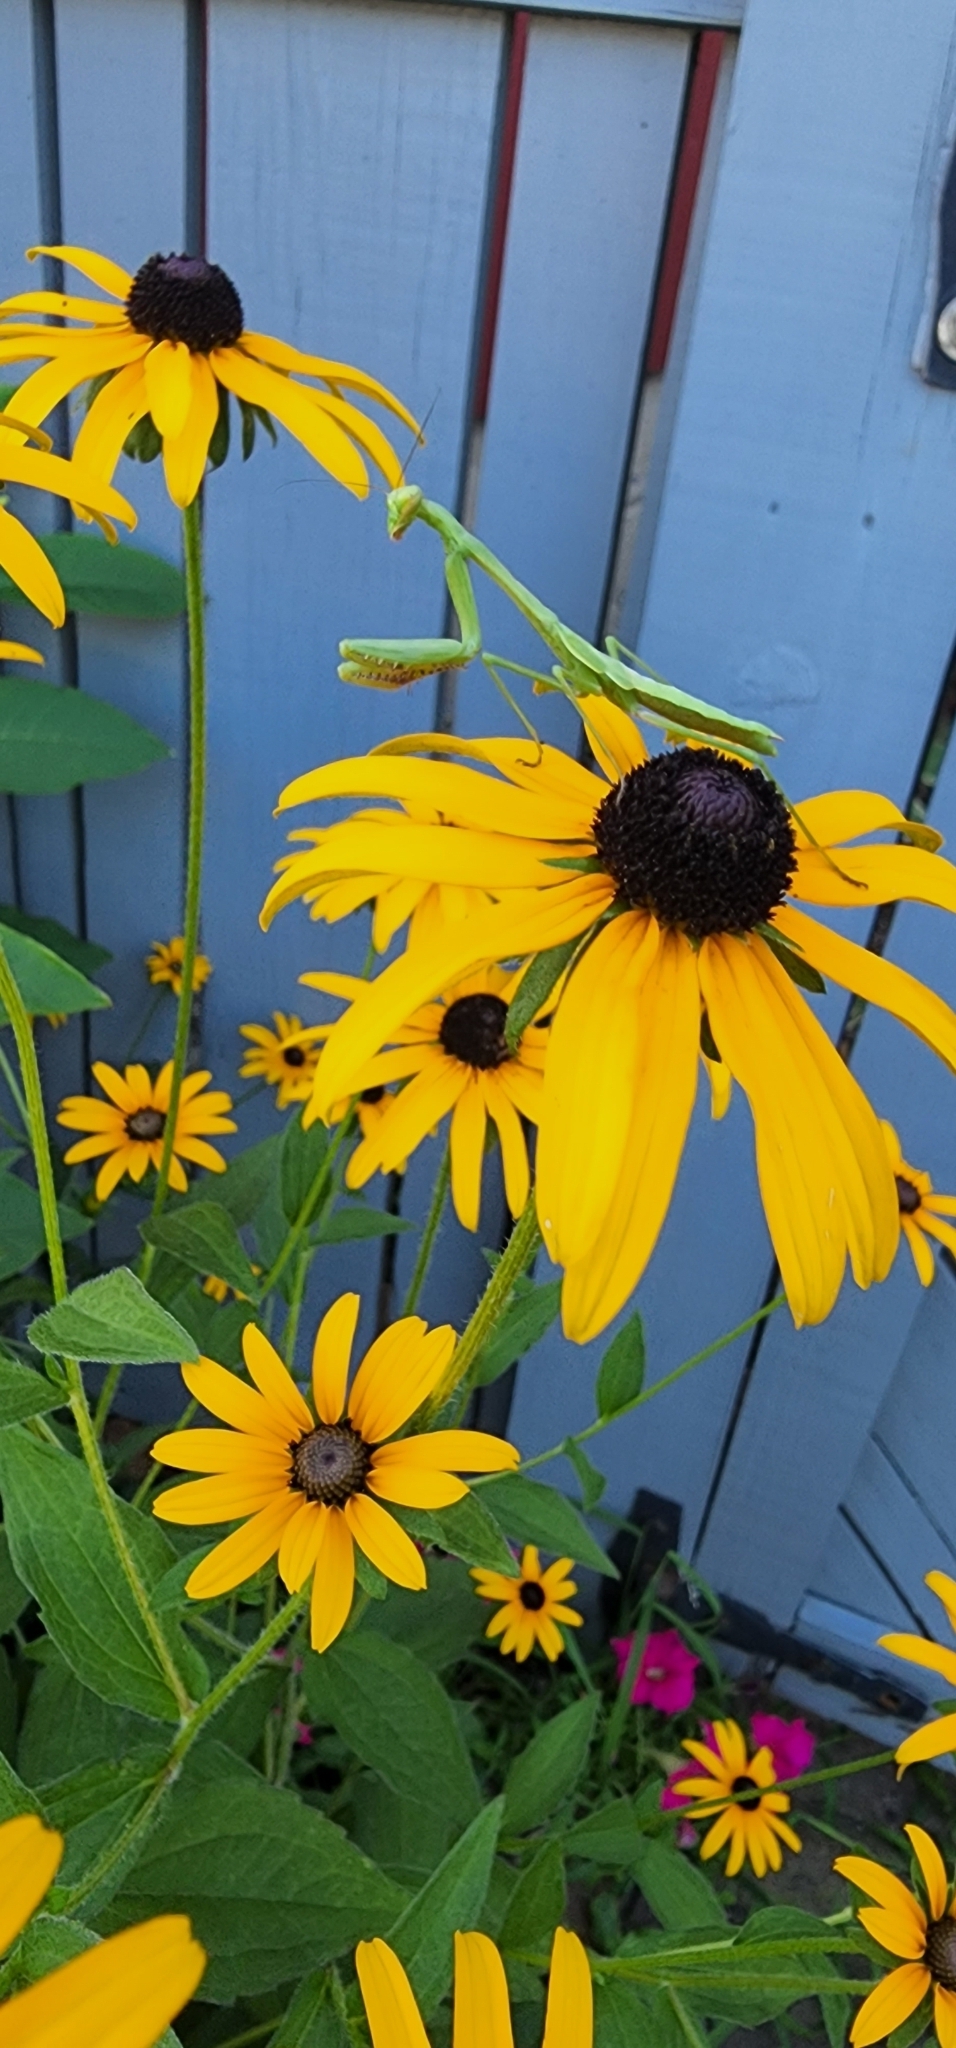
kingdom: Animalia
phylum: Arthropoda
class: Insecta
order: Mantodea
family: Mantidae
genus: Stagmomantis
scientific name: Stagmomantis carolina
